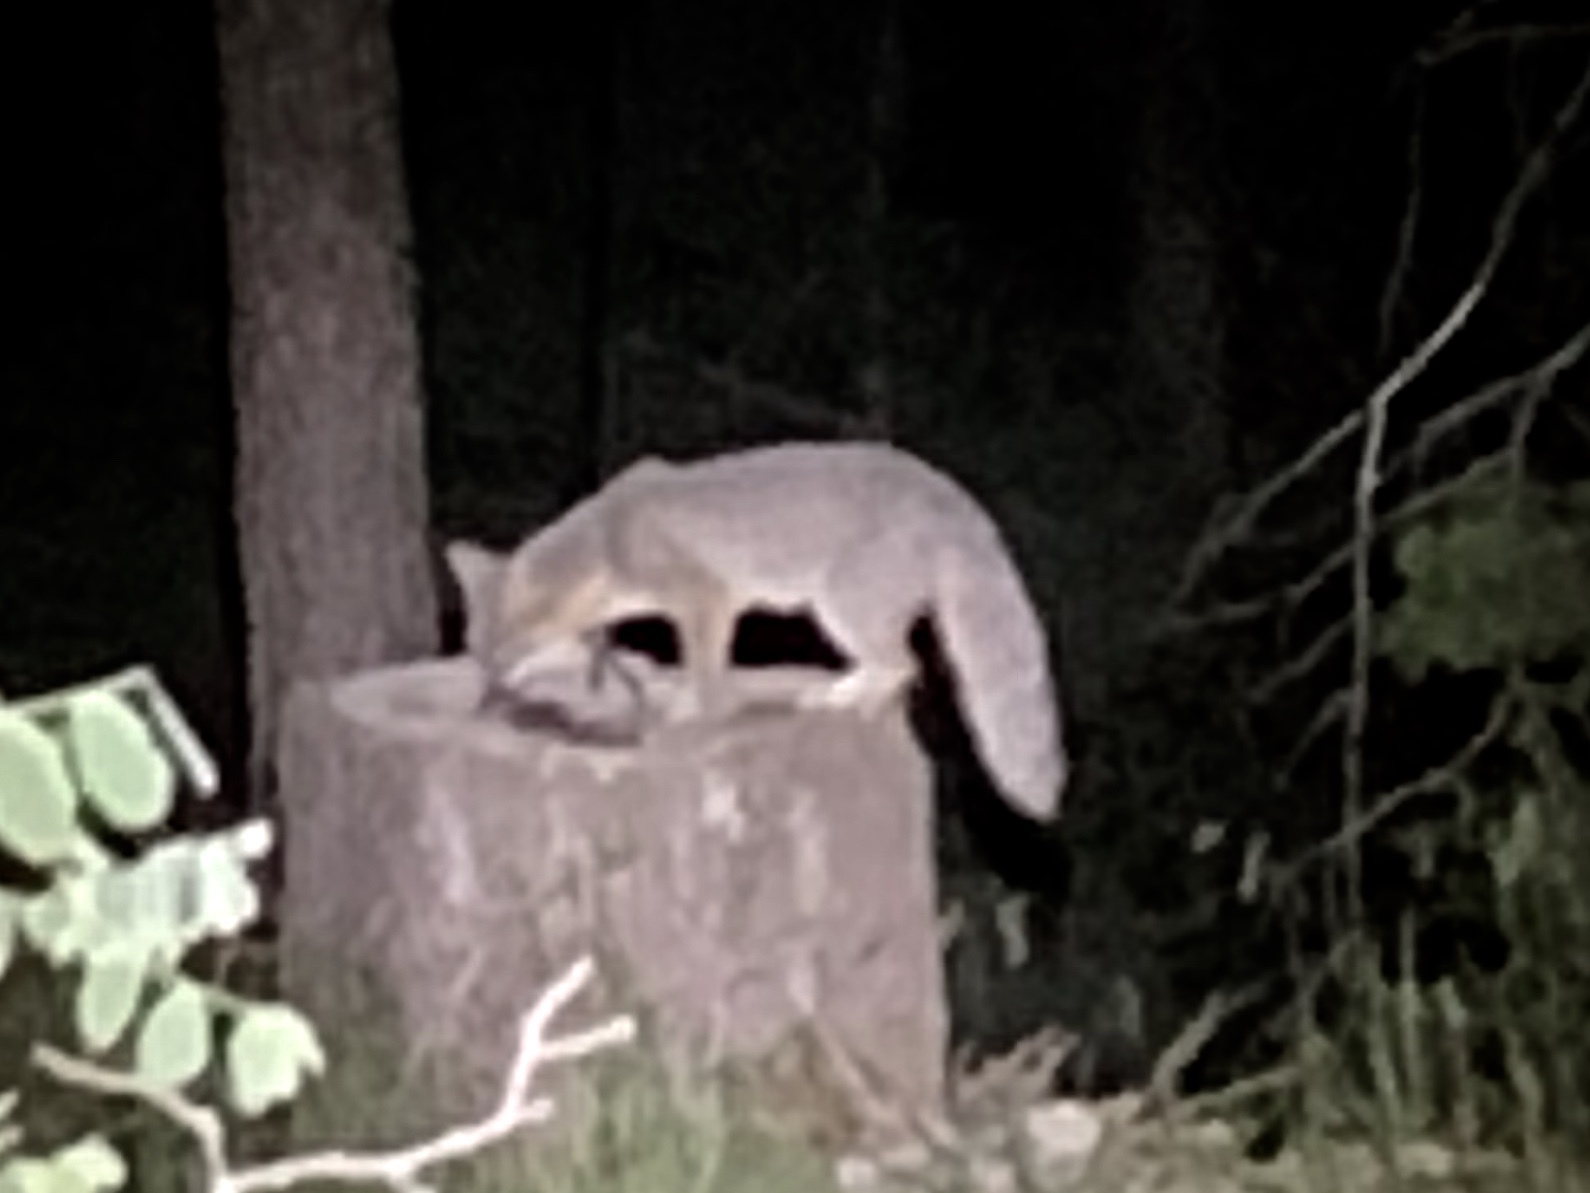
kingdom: Animalia
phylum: Chordata
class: Mammalia
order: Carnivora
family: Canidae
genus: Urocyon
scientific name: Urocyon cinereoargenteus
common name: Gray fox
